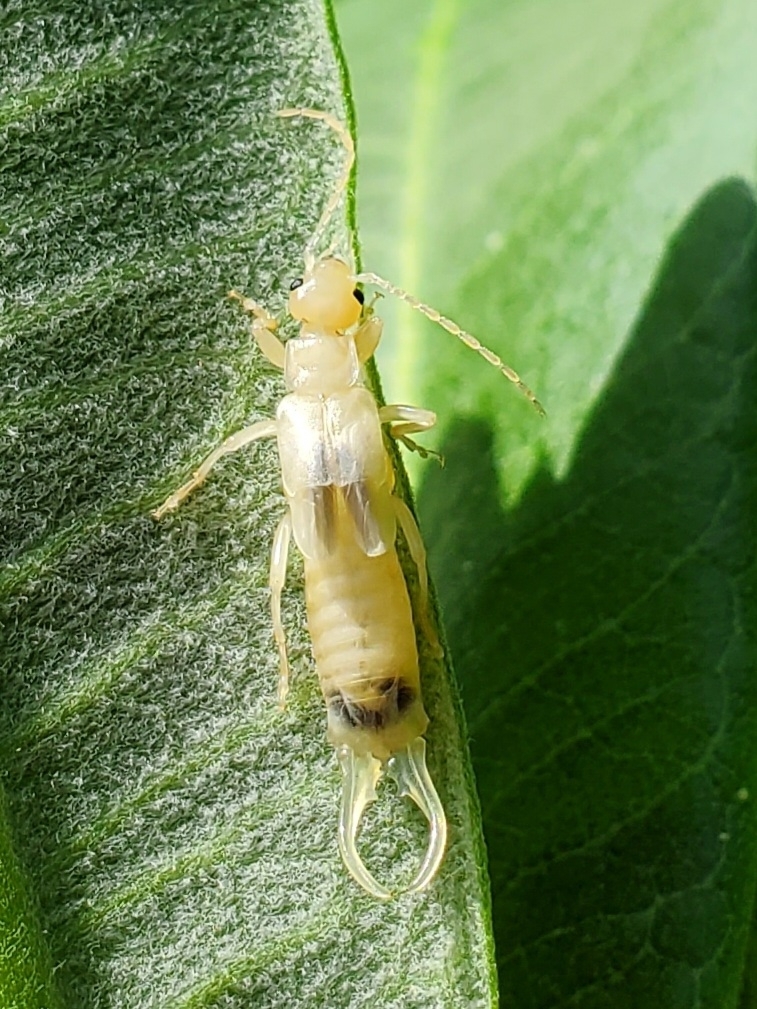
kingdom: Animalia
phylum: Arthropoda
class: Insecta
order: Dermaptera
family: Forficulidae
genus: Forficula
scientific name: Forficula
